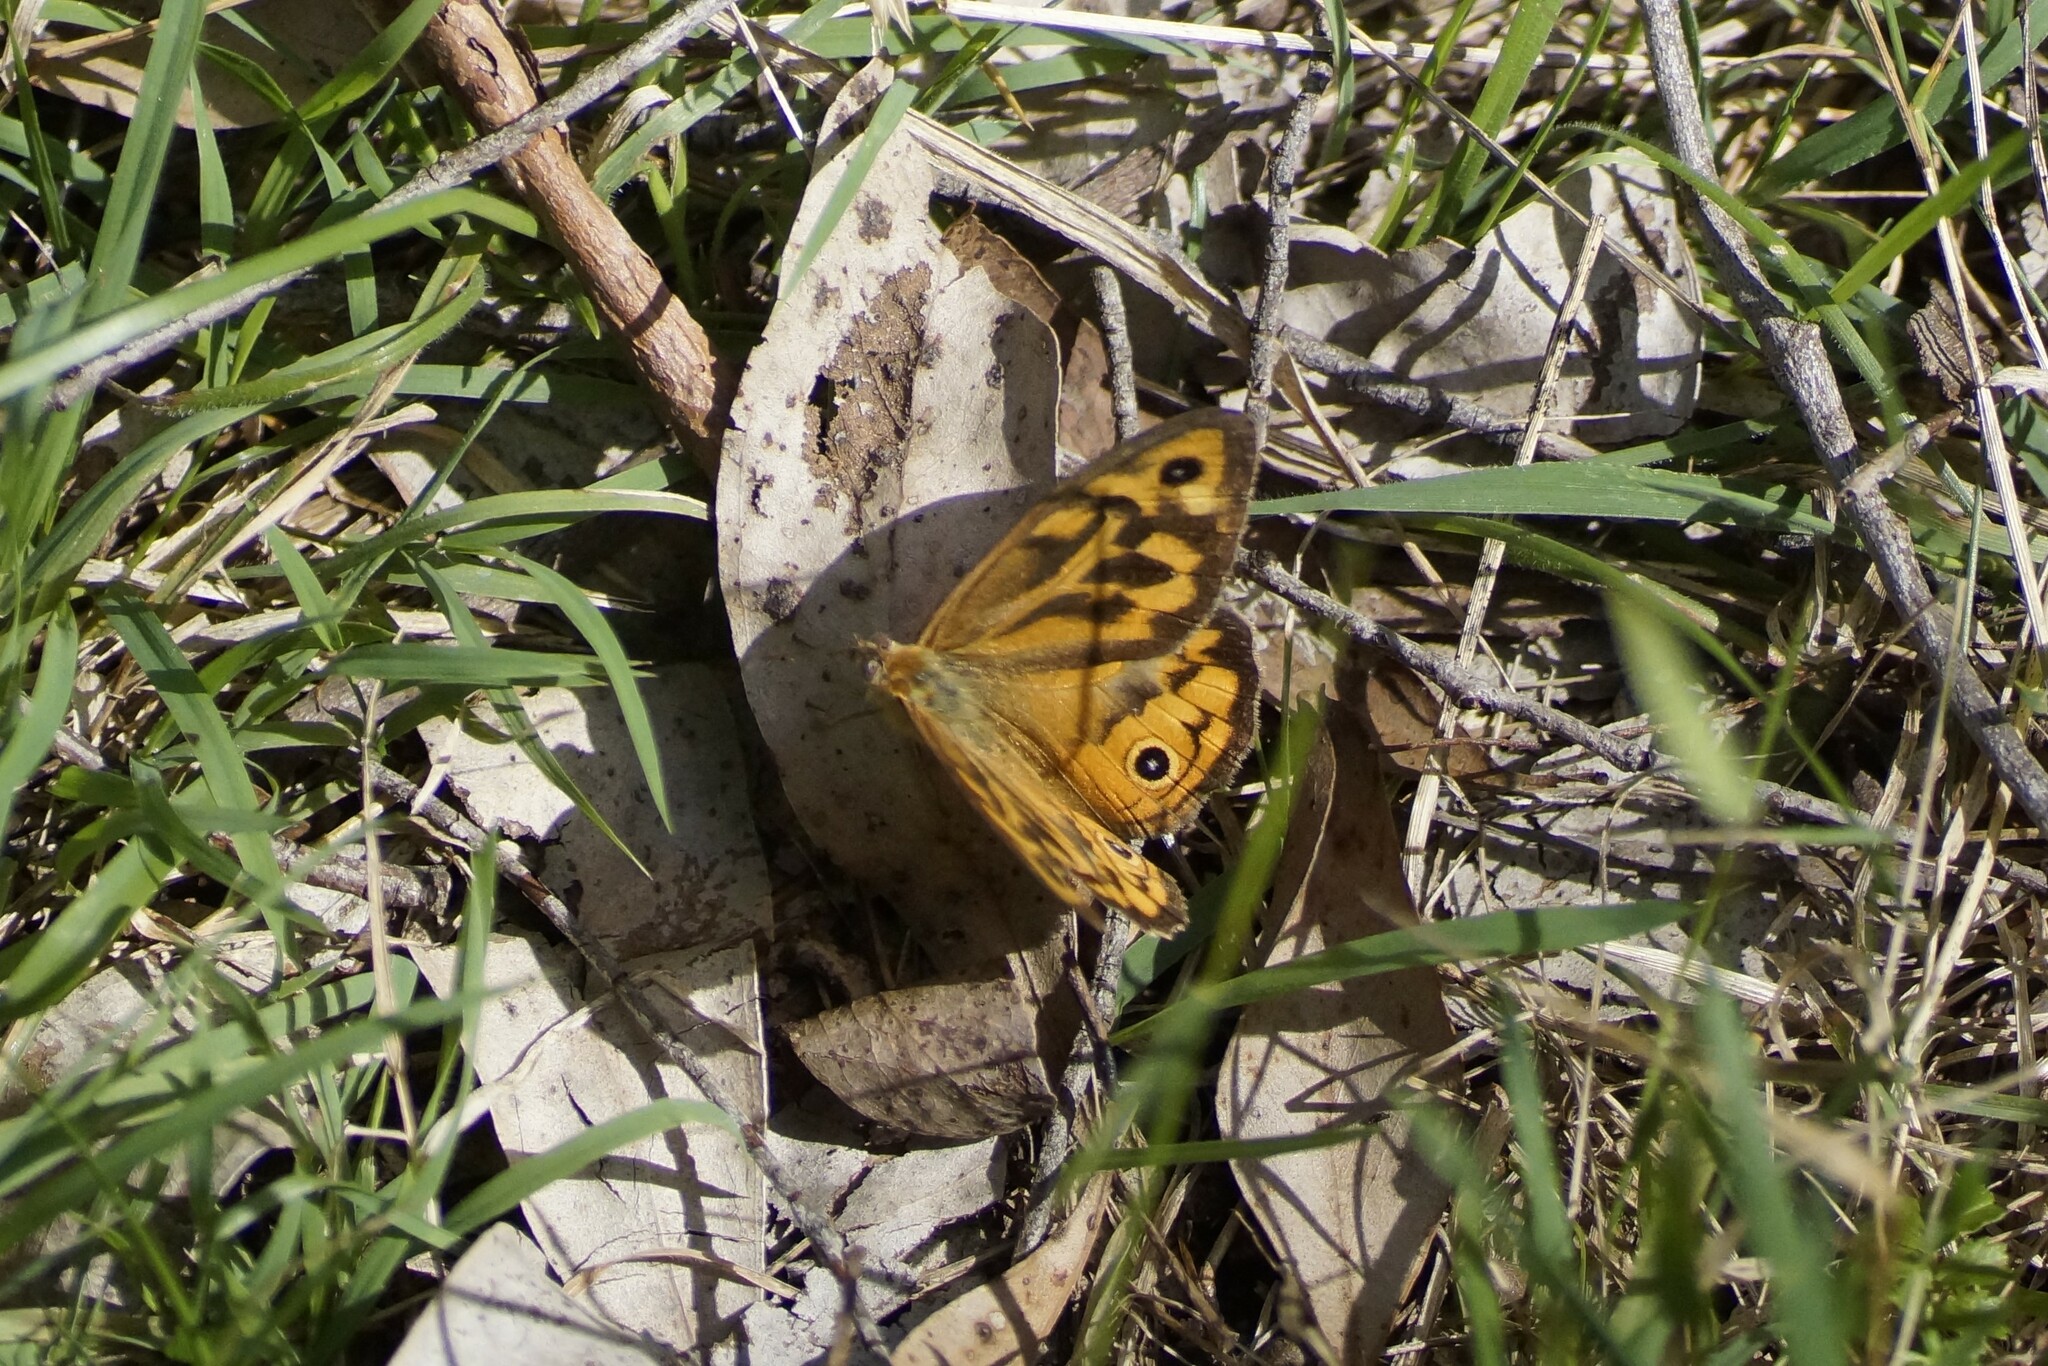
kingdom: Animalia
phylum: Arthropoda
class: Insecta
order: Lepidoptera
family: Nymphalidae
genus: Heteronympha
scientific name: Heteronympha merope
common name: Common brown
